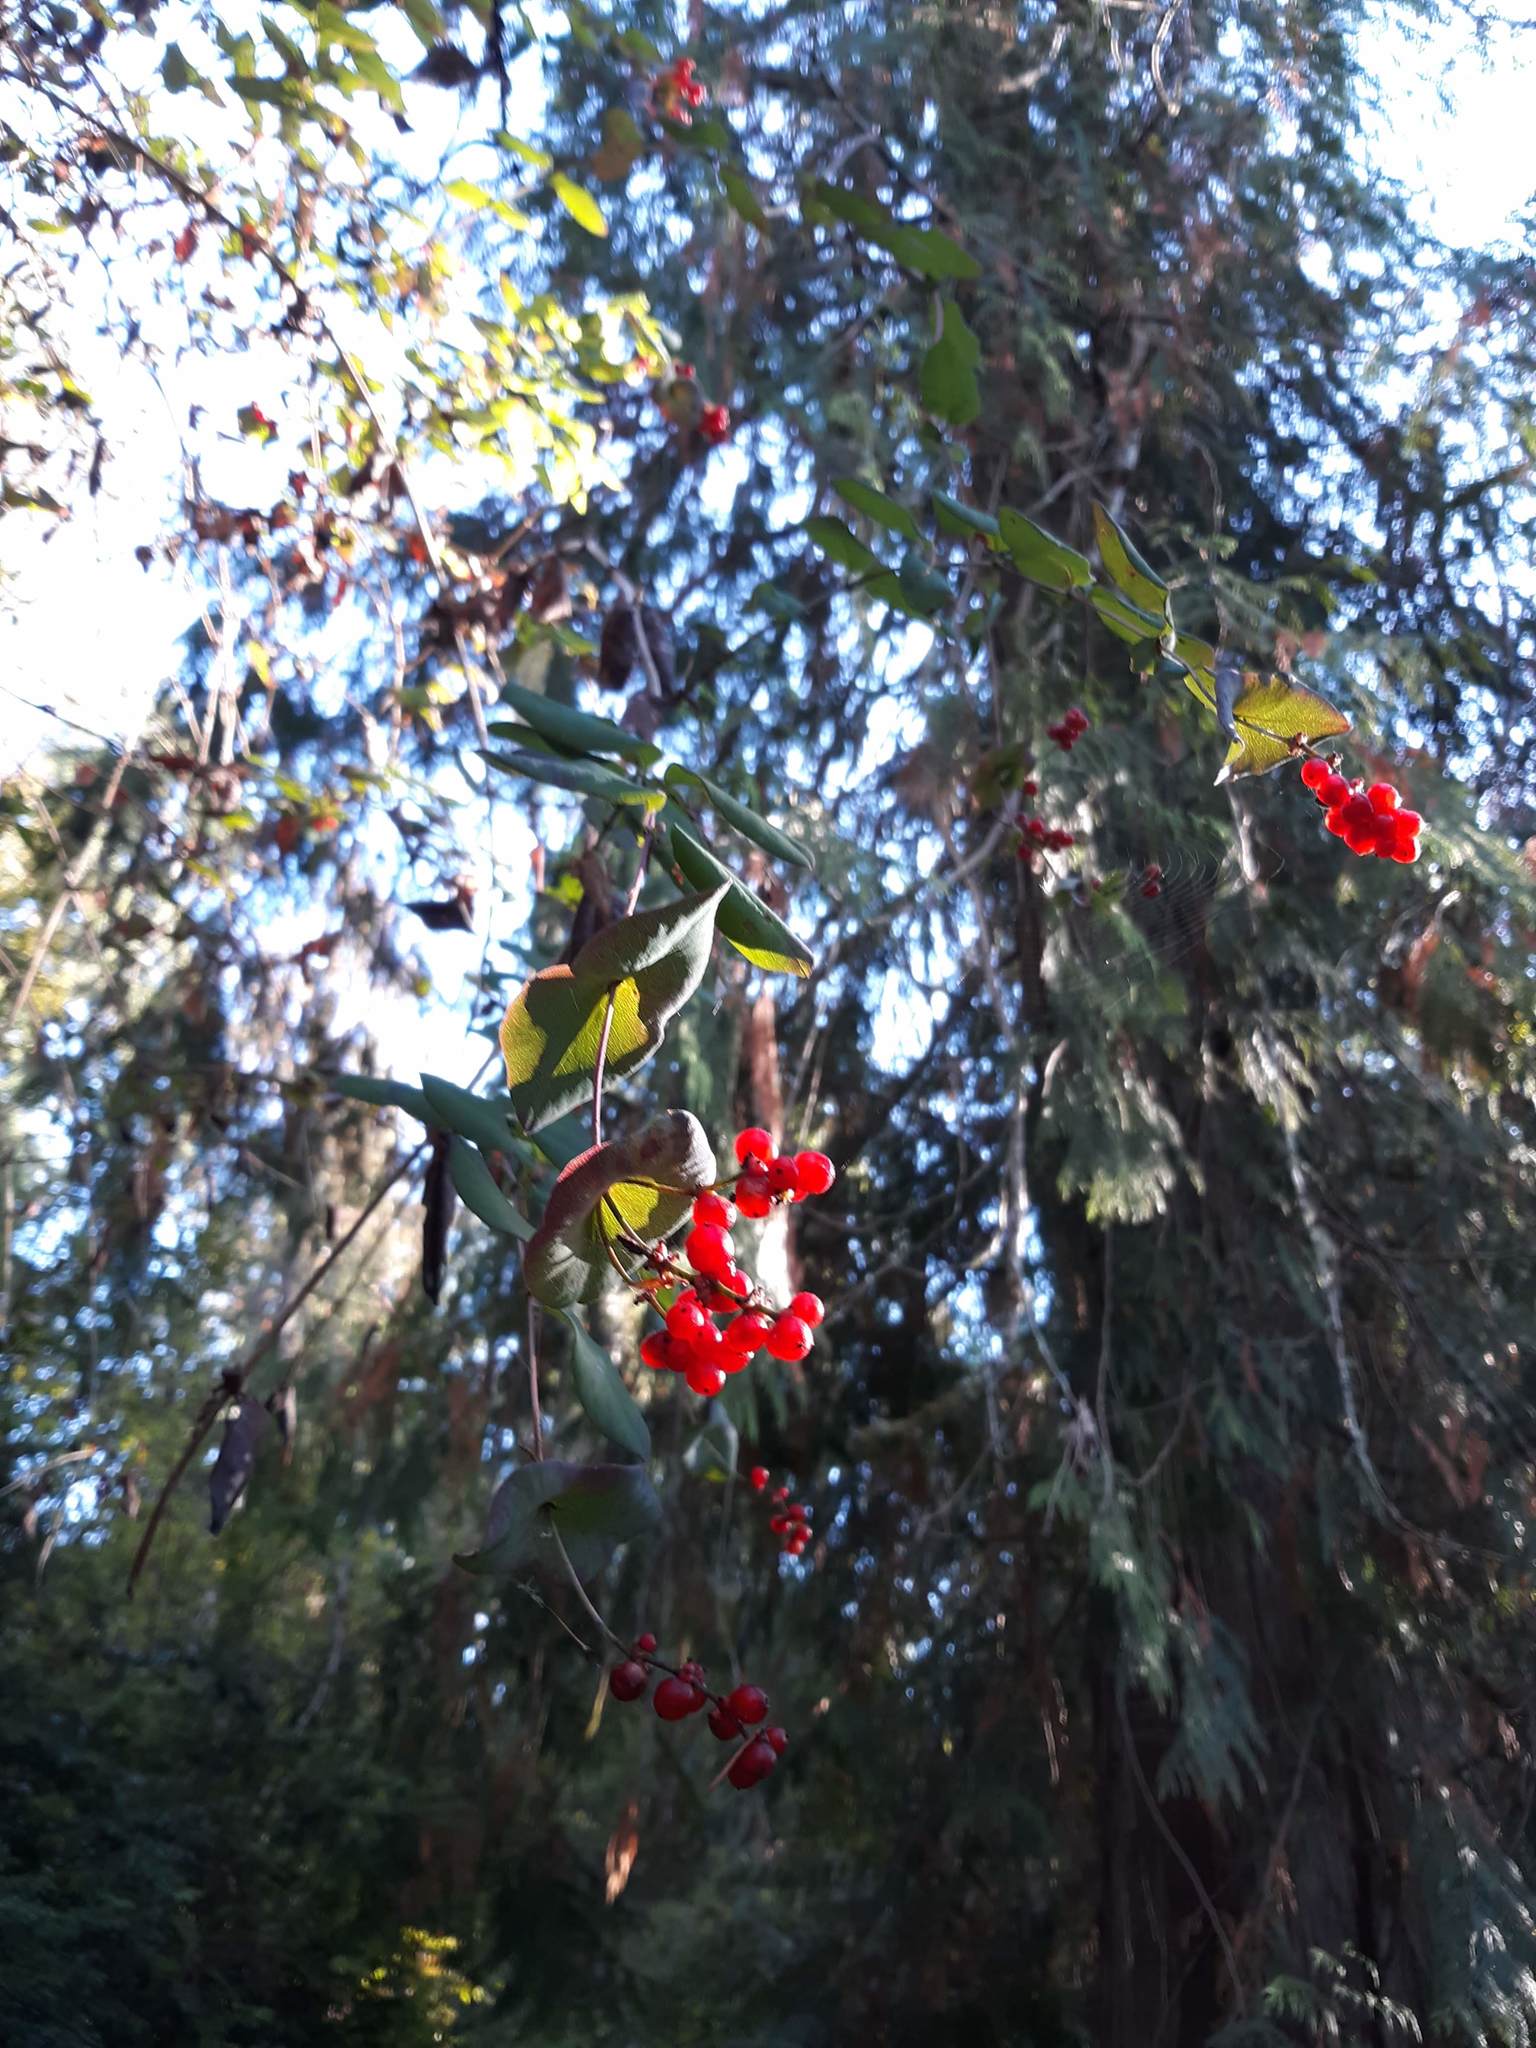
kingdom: Plantae
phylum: Tracheophyta
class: Magnoliopsida
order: Dipsacales
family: Caprifoliaceae
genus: Lonicera
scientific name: Lonicera hispidula
